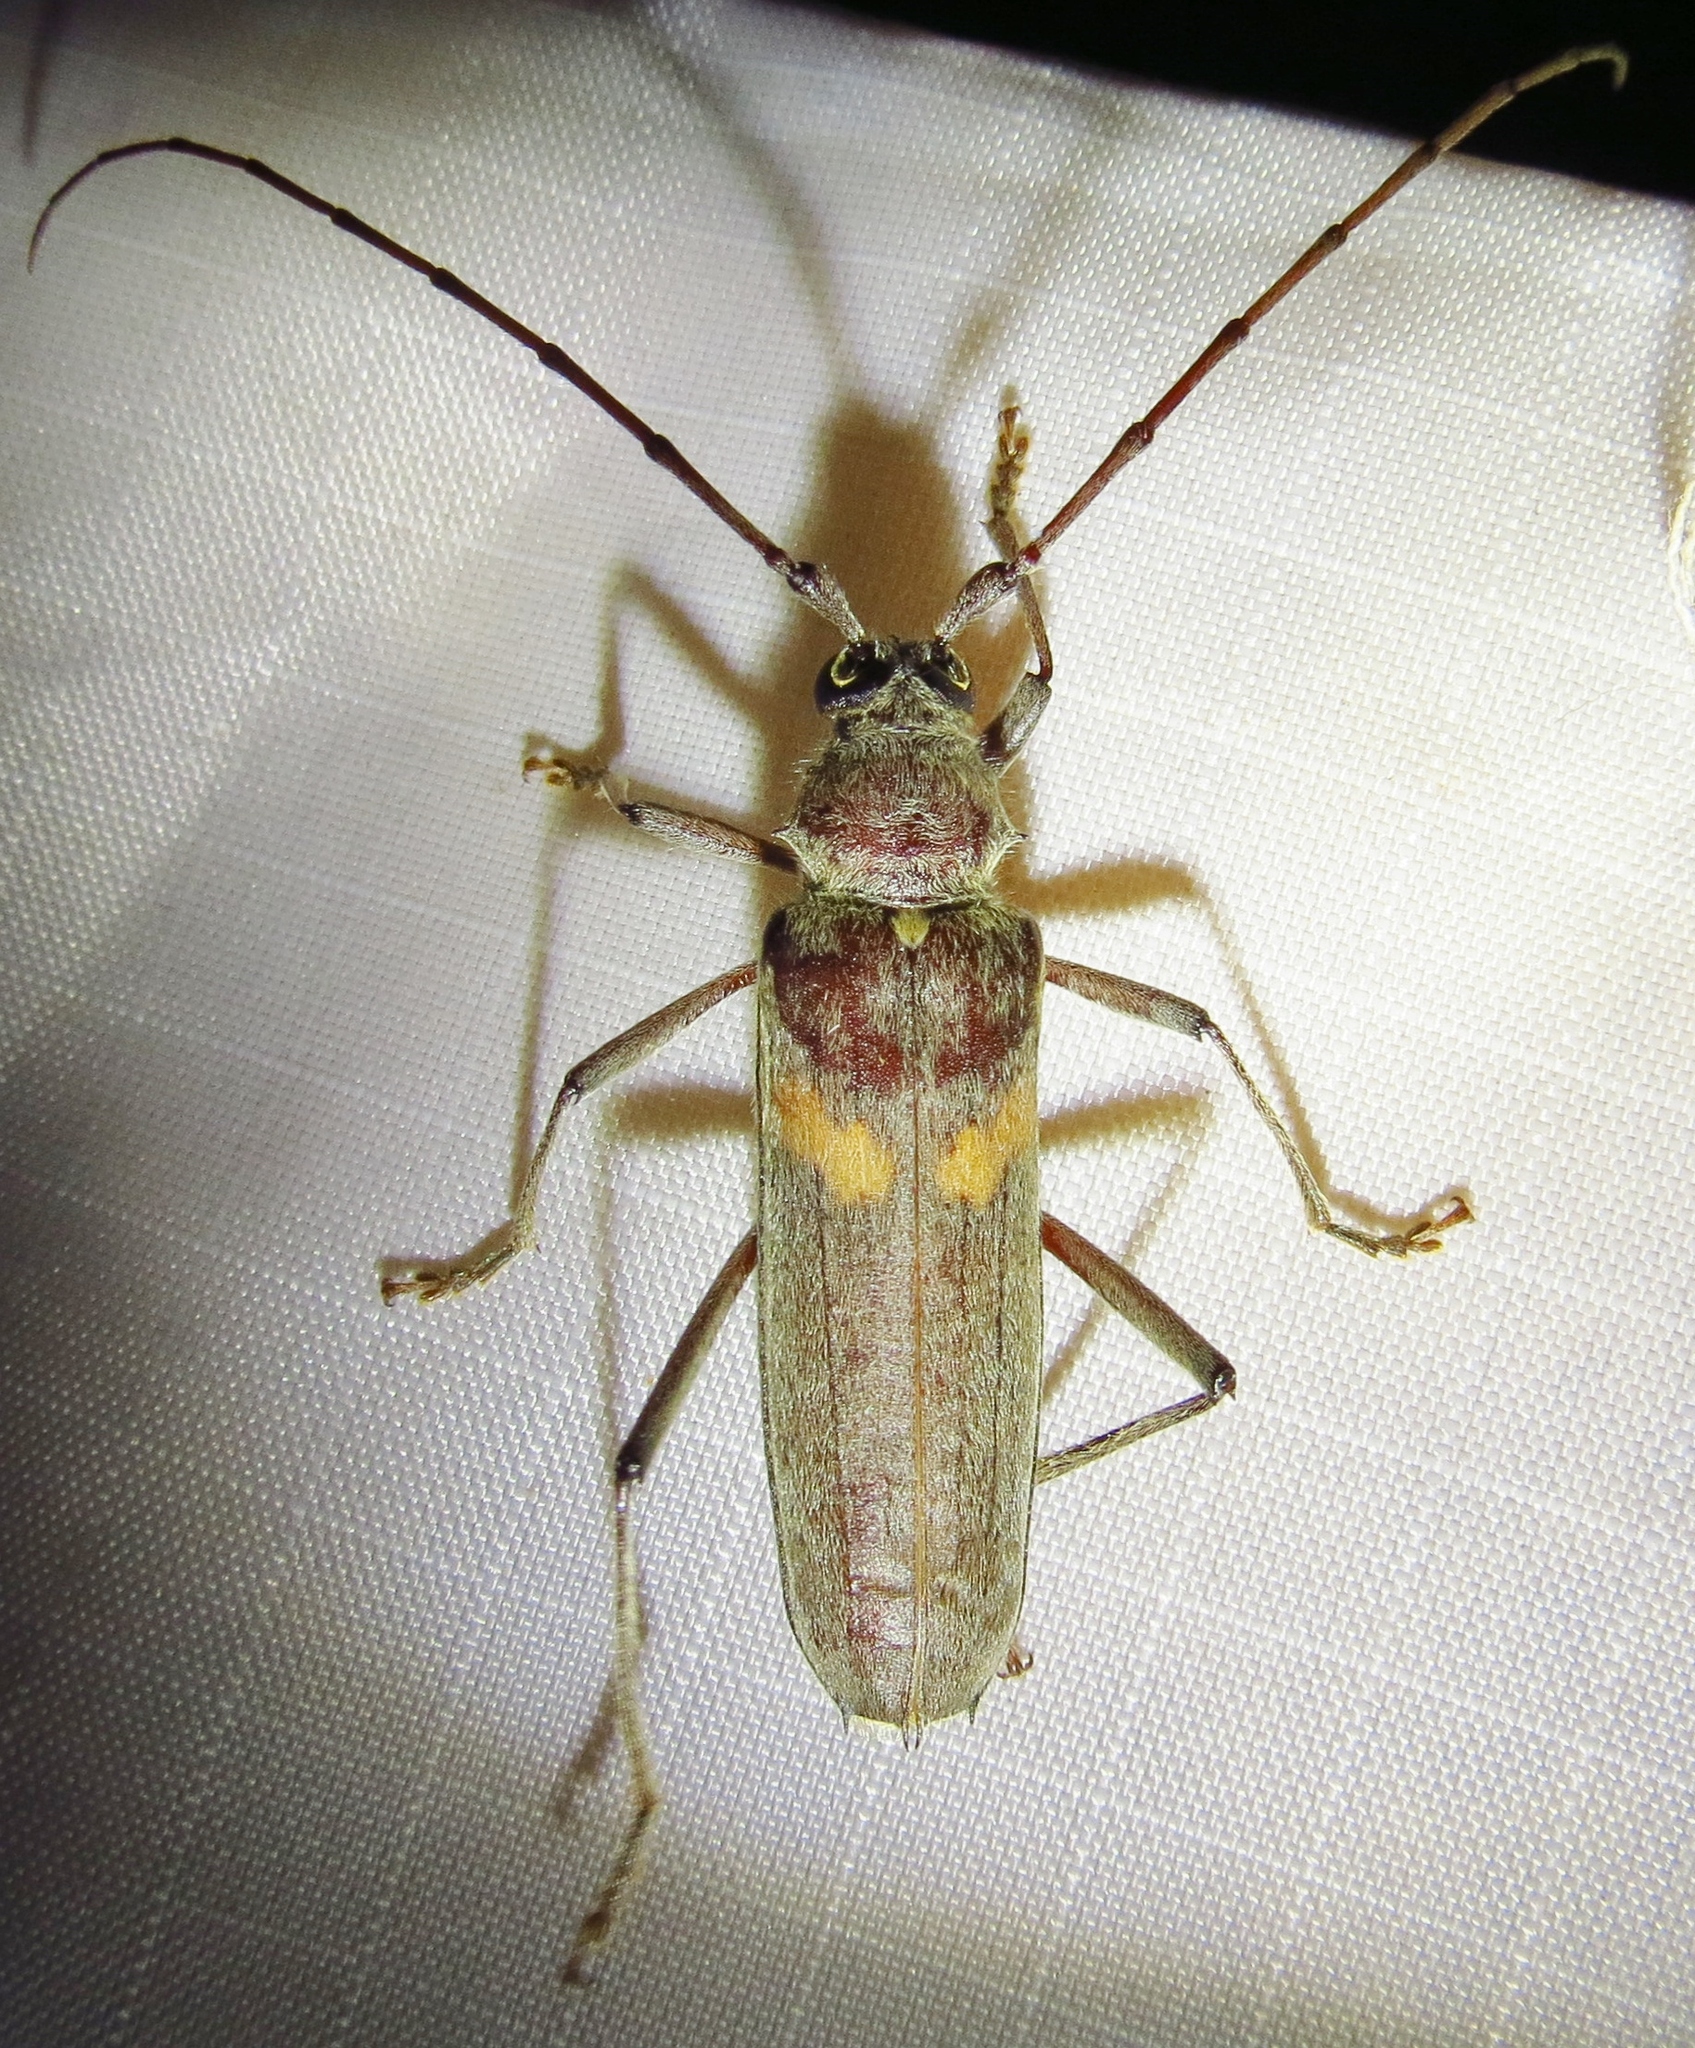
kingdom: Animalia
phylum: Arthropoda
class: Insecta
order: Coleoptera
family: Cerambycidae
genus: Knulliana
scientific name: Knulliana cincta
